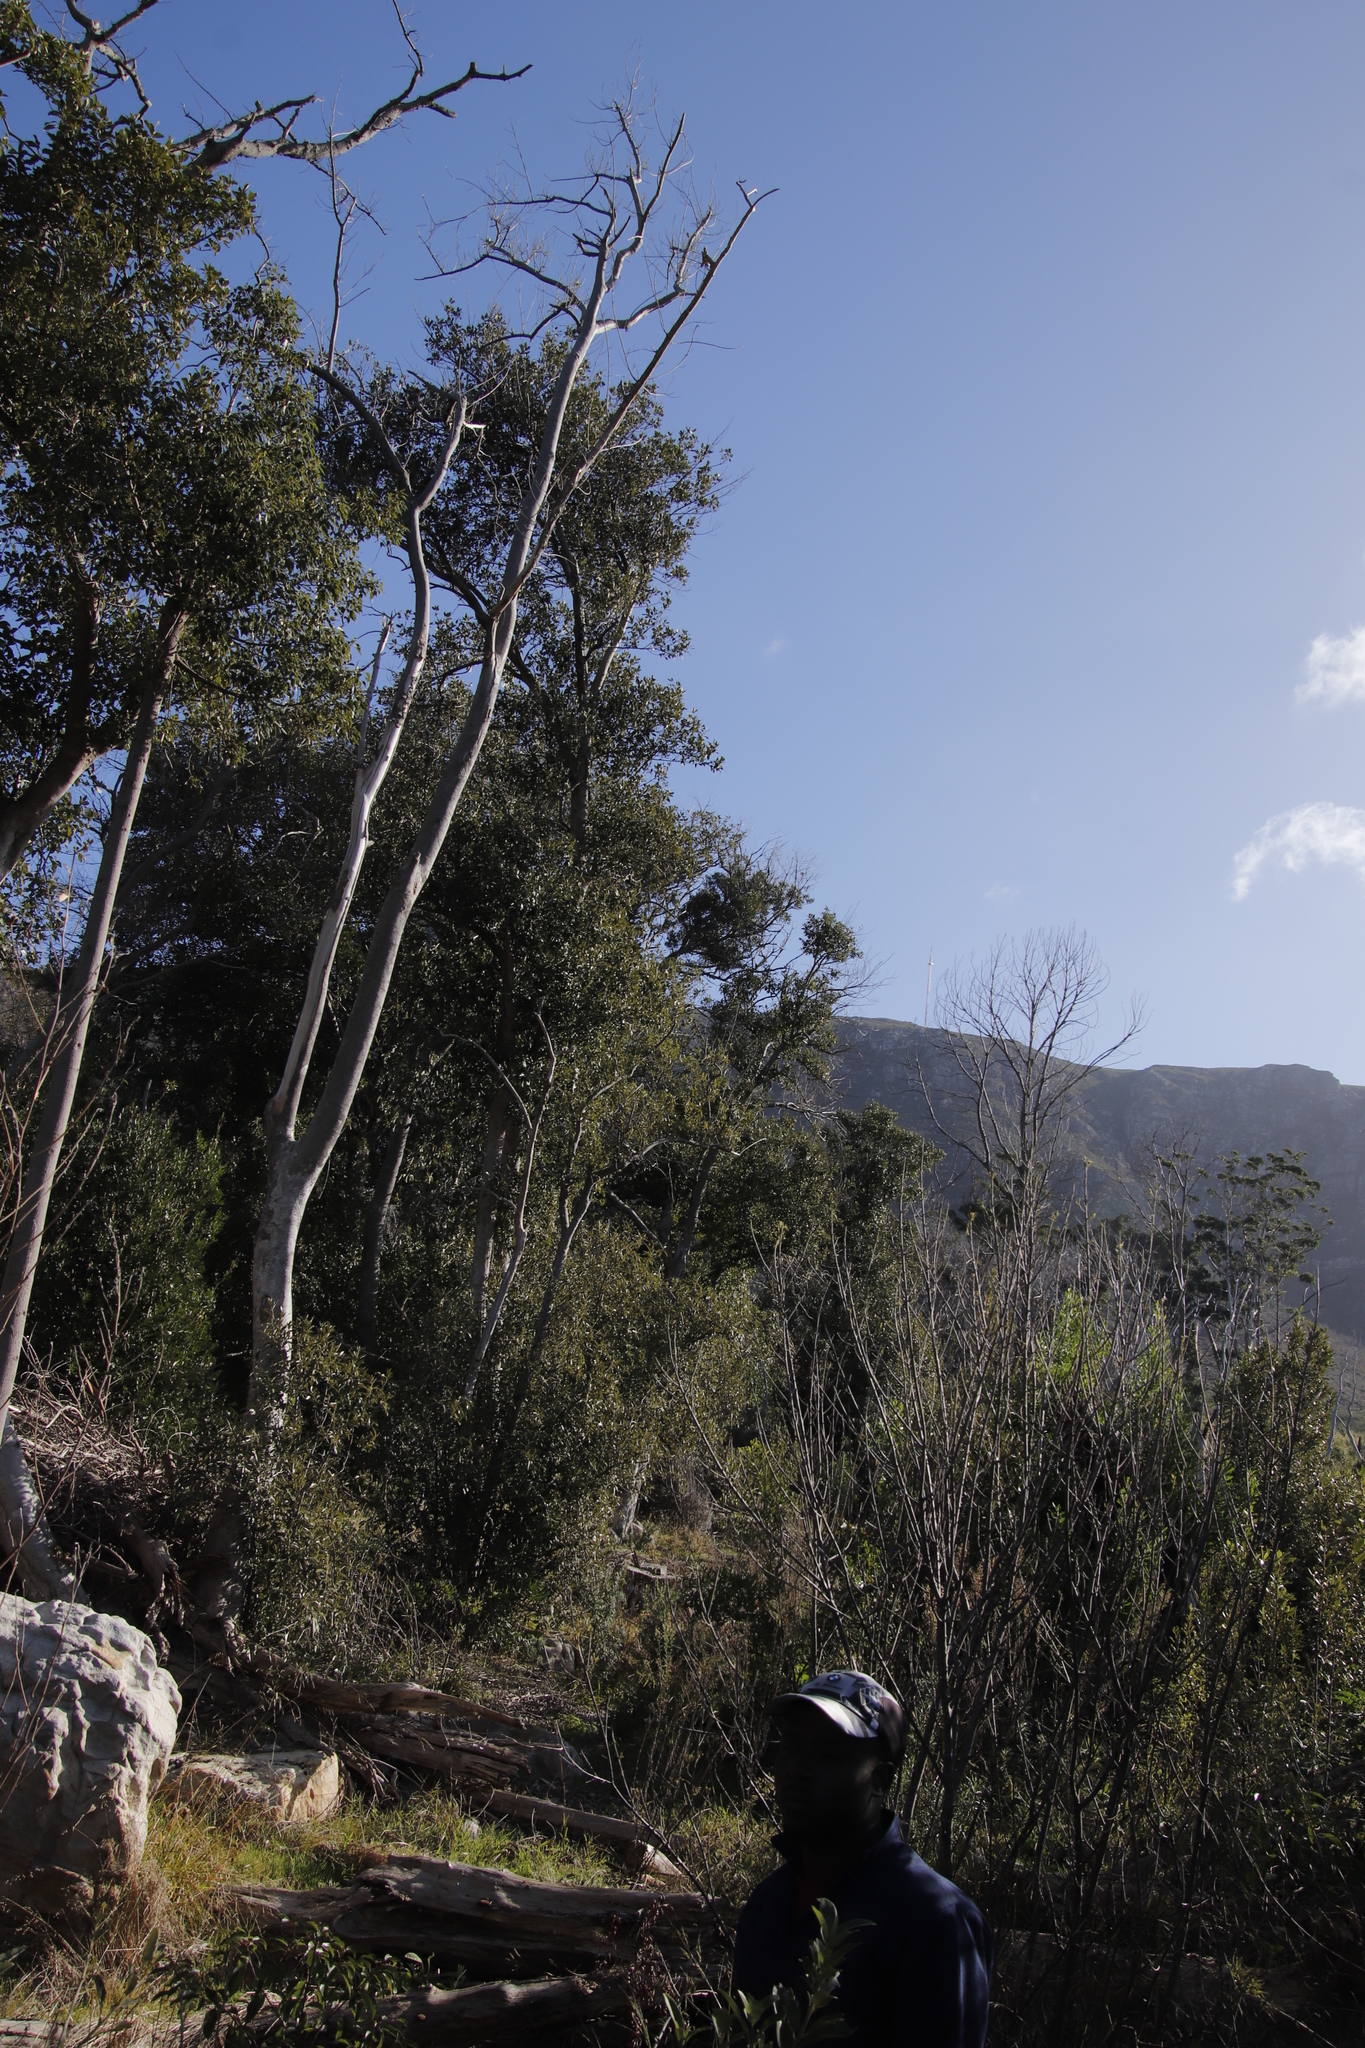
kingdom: Plantae
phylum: Tracheophyta
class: Magnoliopsida
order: Malpighiales
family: Achariaceae
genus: Kiggelaria
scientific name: Kiggelaria africana
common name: Wild peach
